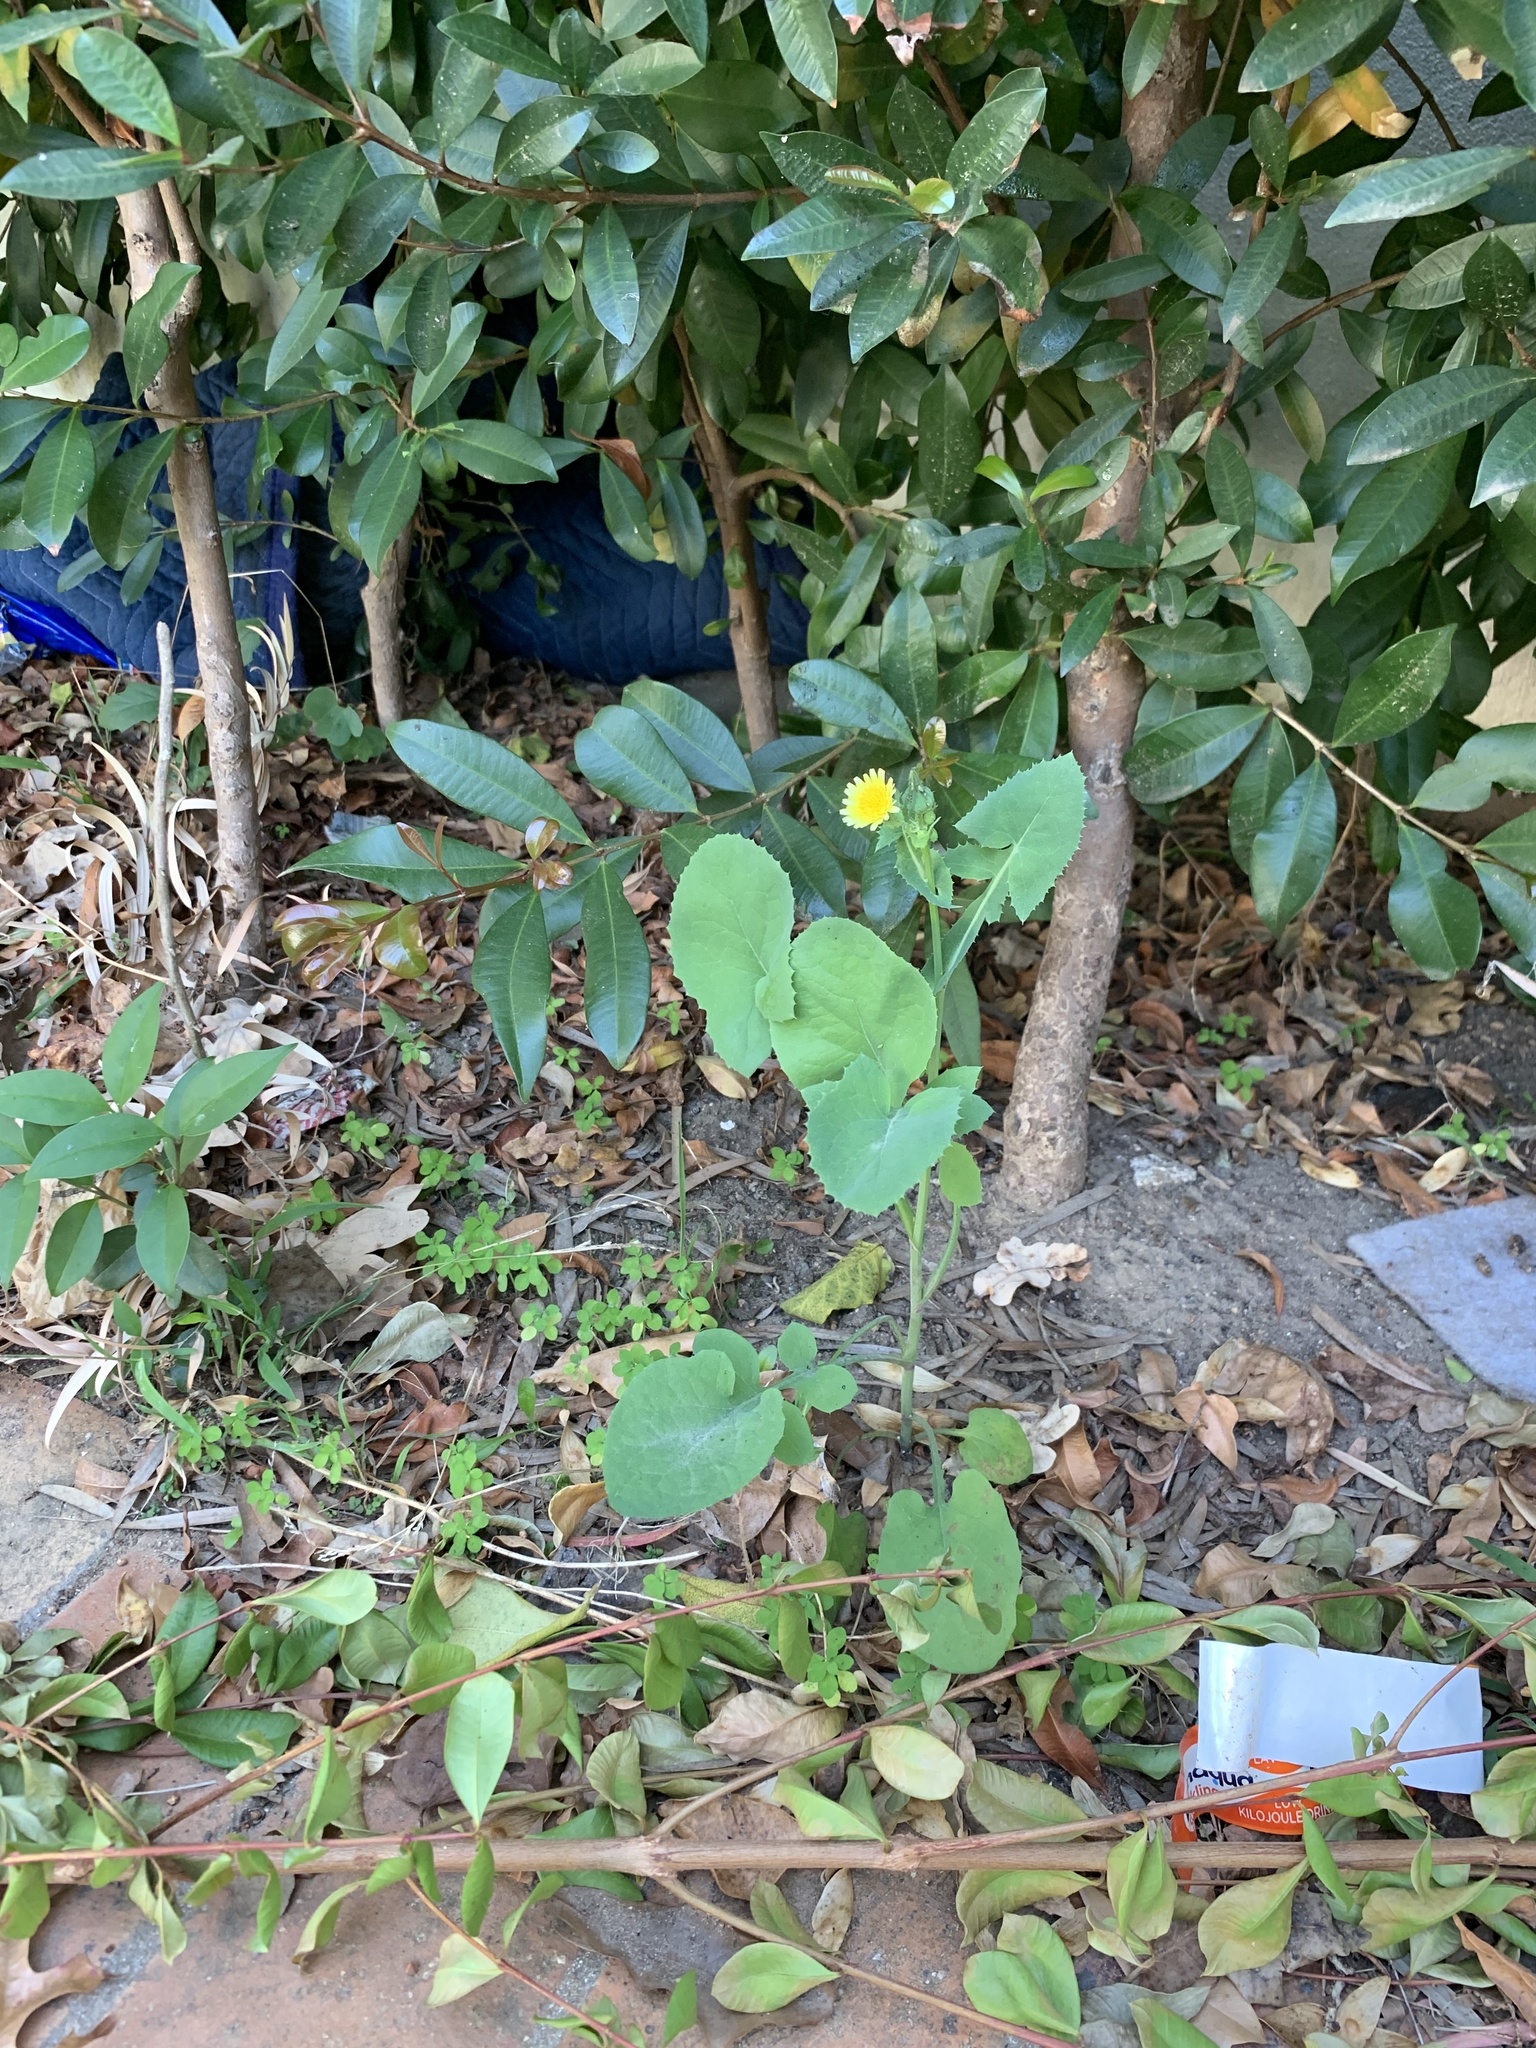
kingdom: Plantae
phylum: Tracheophyta
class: Magnoliopsida
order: Asterales
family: Asteraceae
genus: Sonchus
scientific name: Sonchus oleraceus
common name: Common sowthistle
